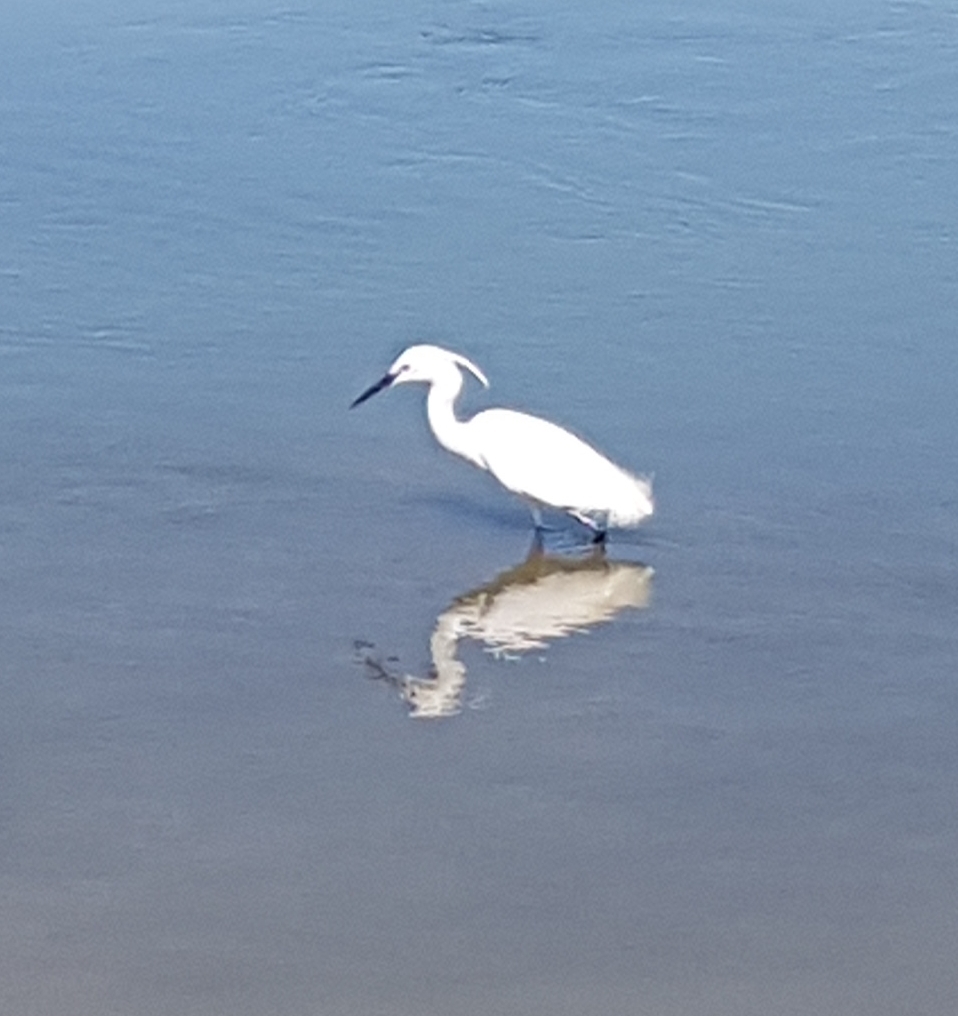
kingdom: Animalia
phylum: Chordata
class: Aves
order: Pelecaniformes
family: Ardeidae
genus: Egretta
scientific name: Egretta garzetta
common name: Little egret
